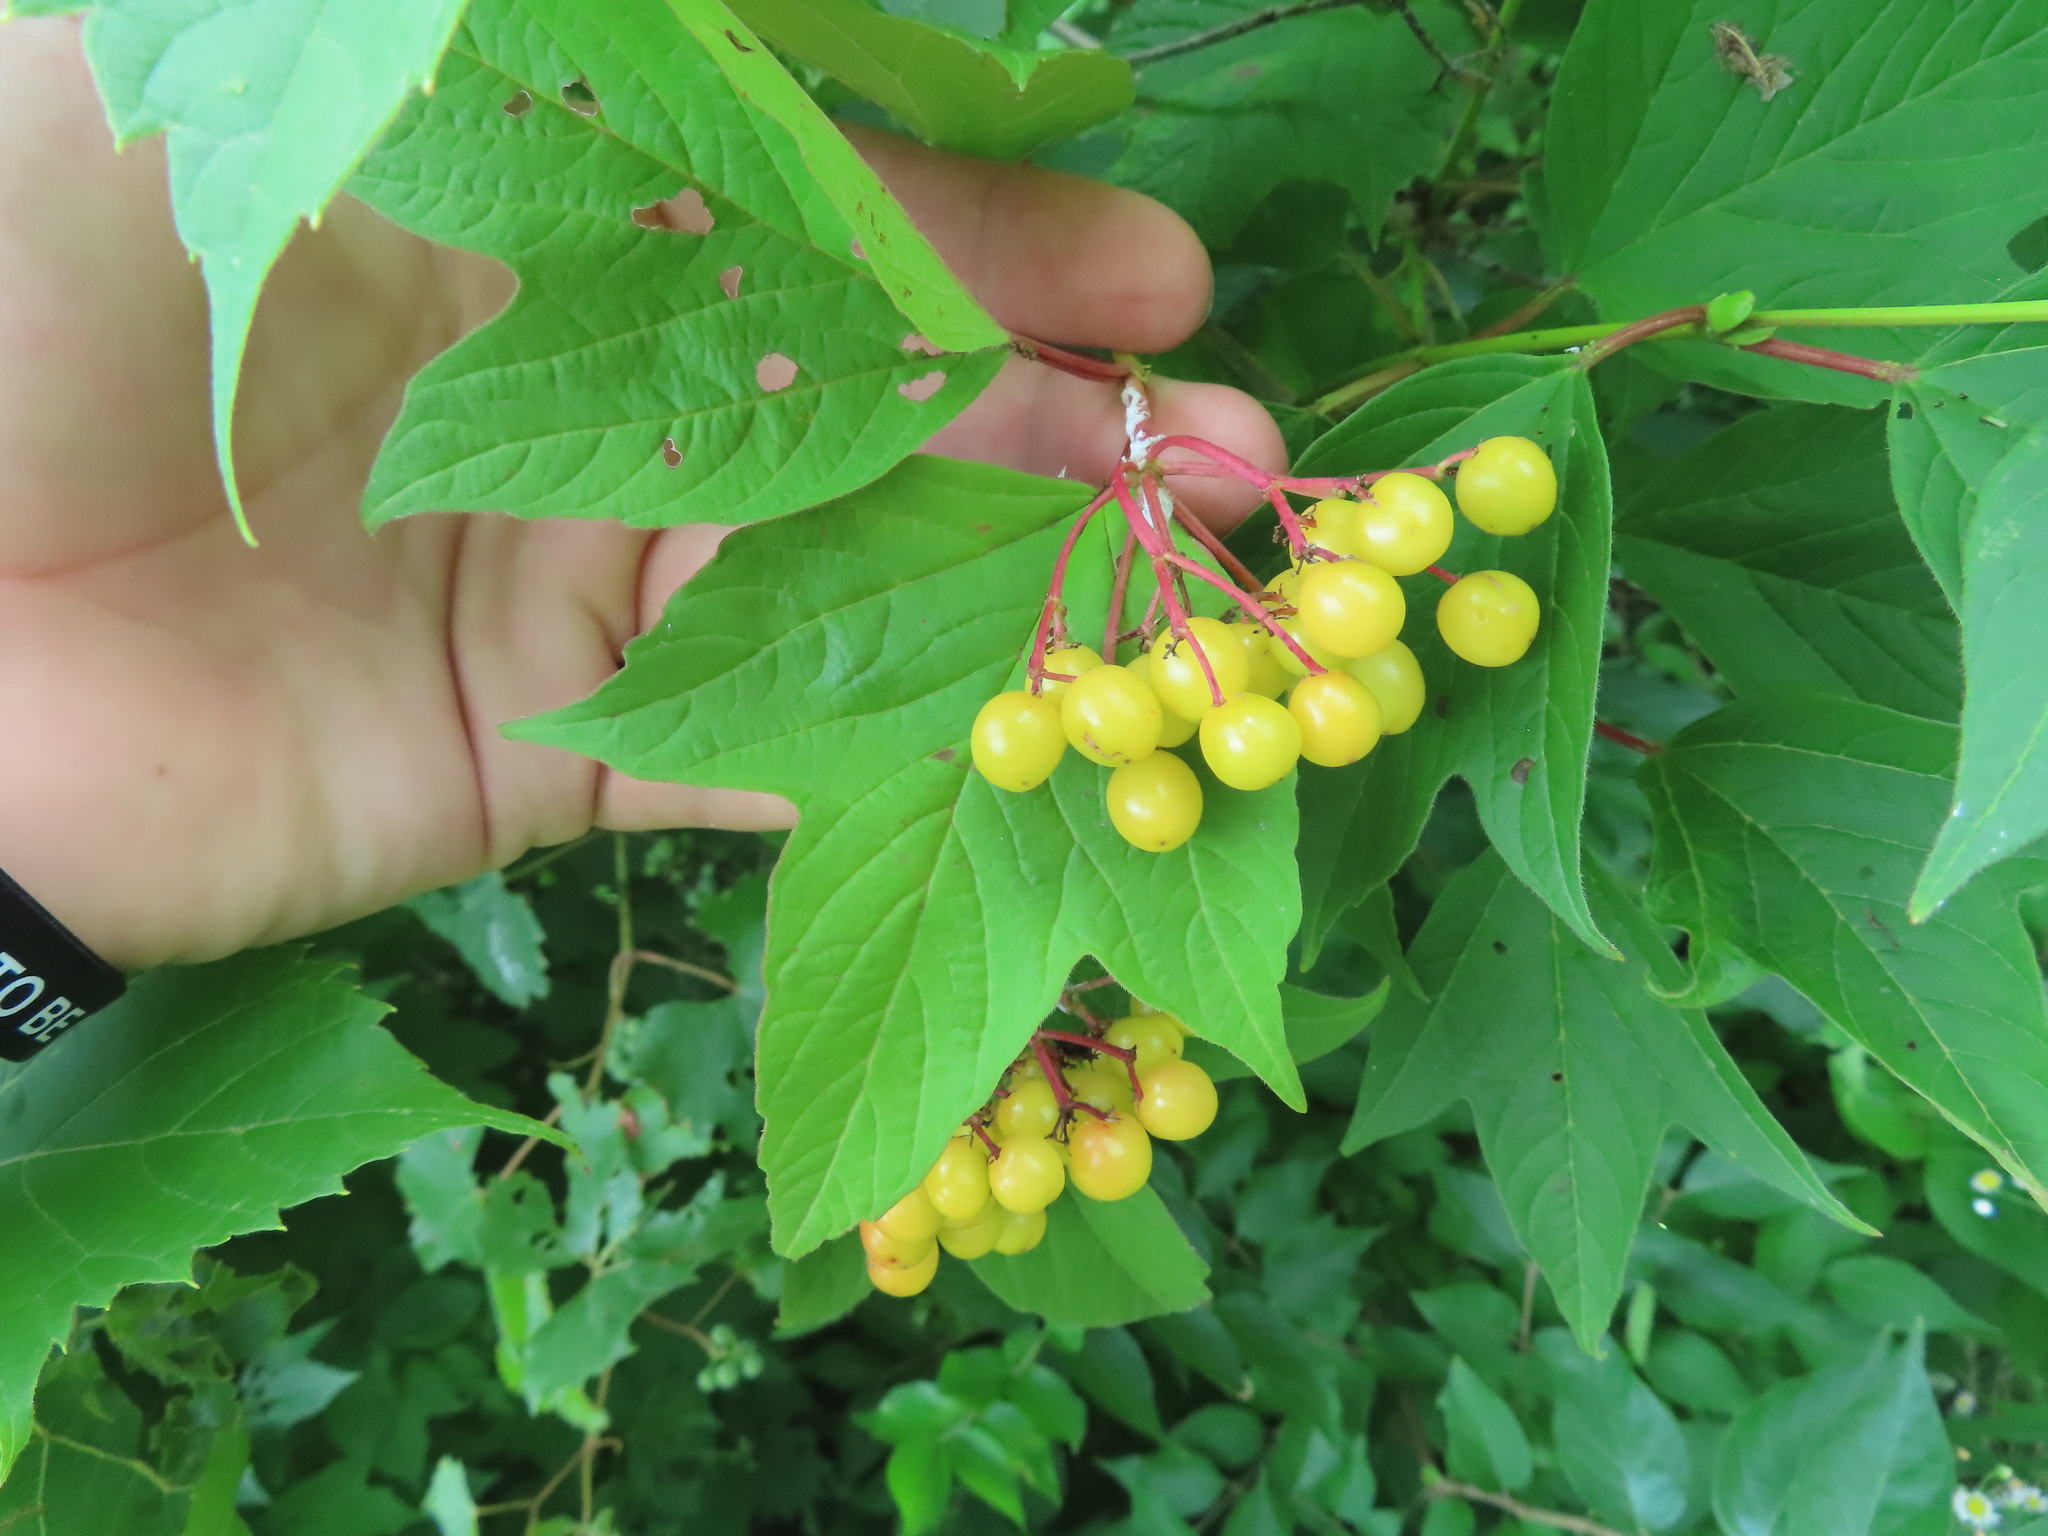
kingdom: Plantae
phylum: Tracheophyta
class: Magnoliopsida
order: Dipsacales
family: Viburnaceae
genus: Viburnum
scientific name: Viburnum opulus
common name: Guelder-rose
